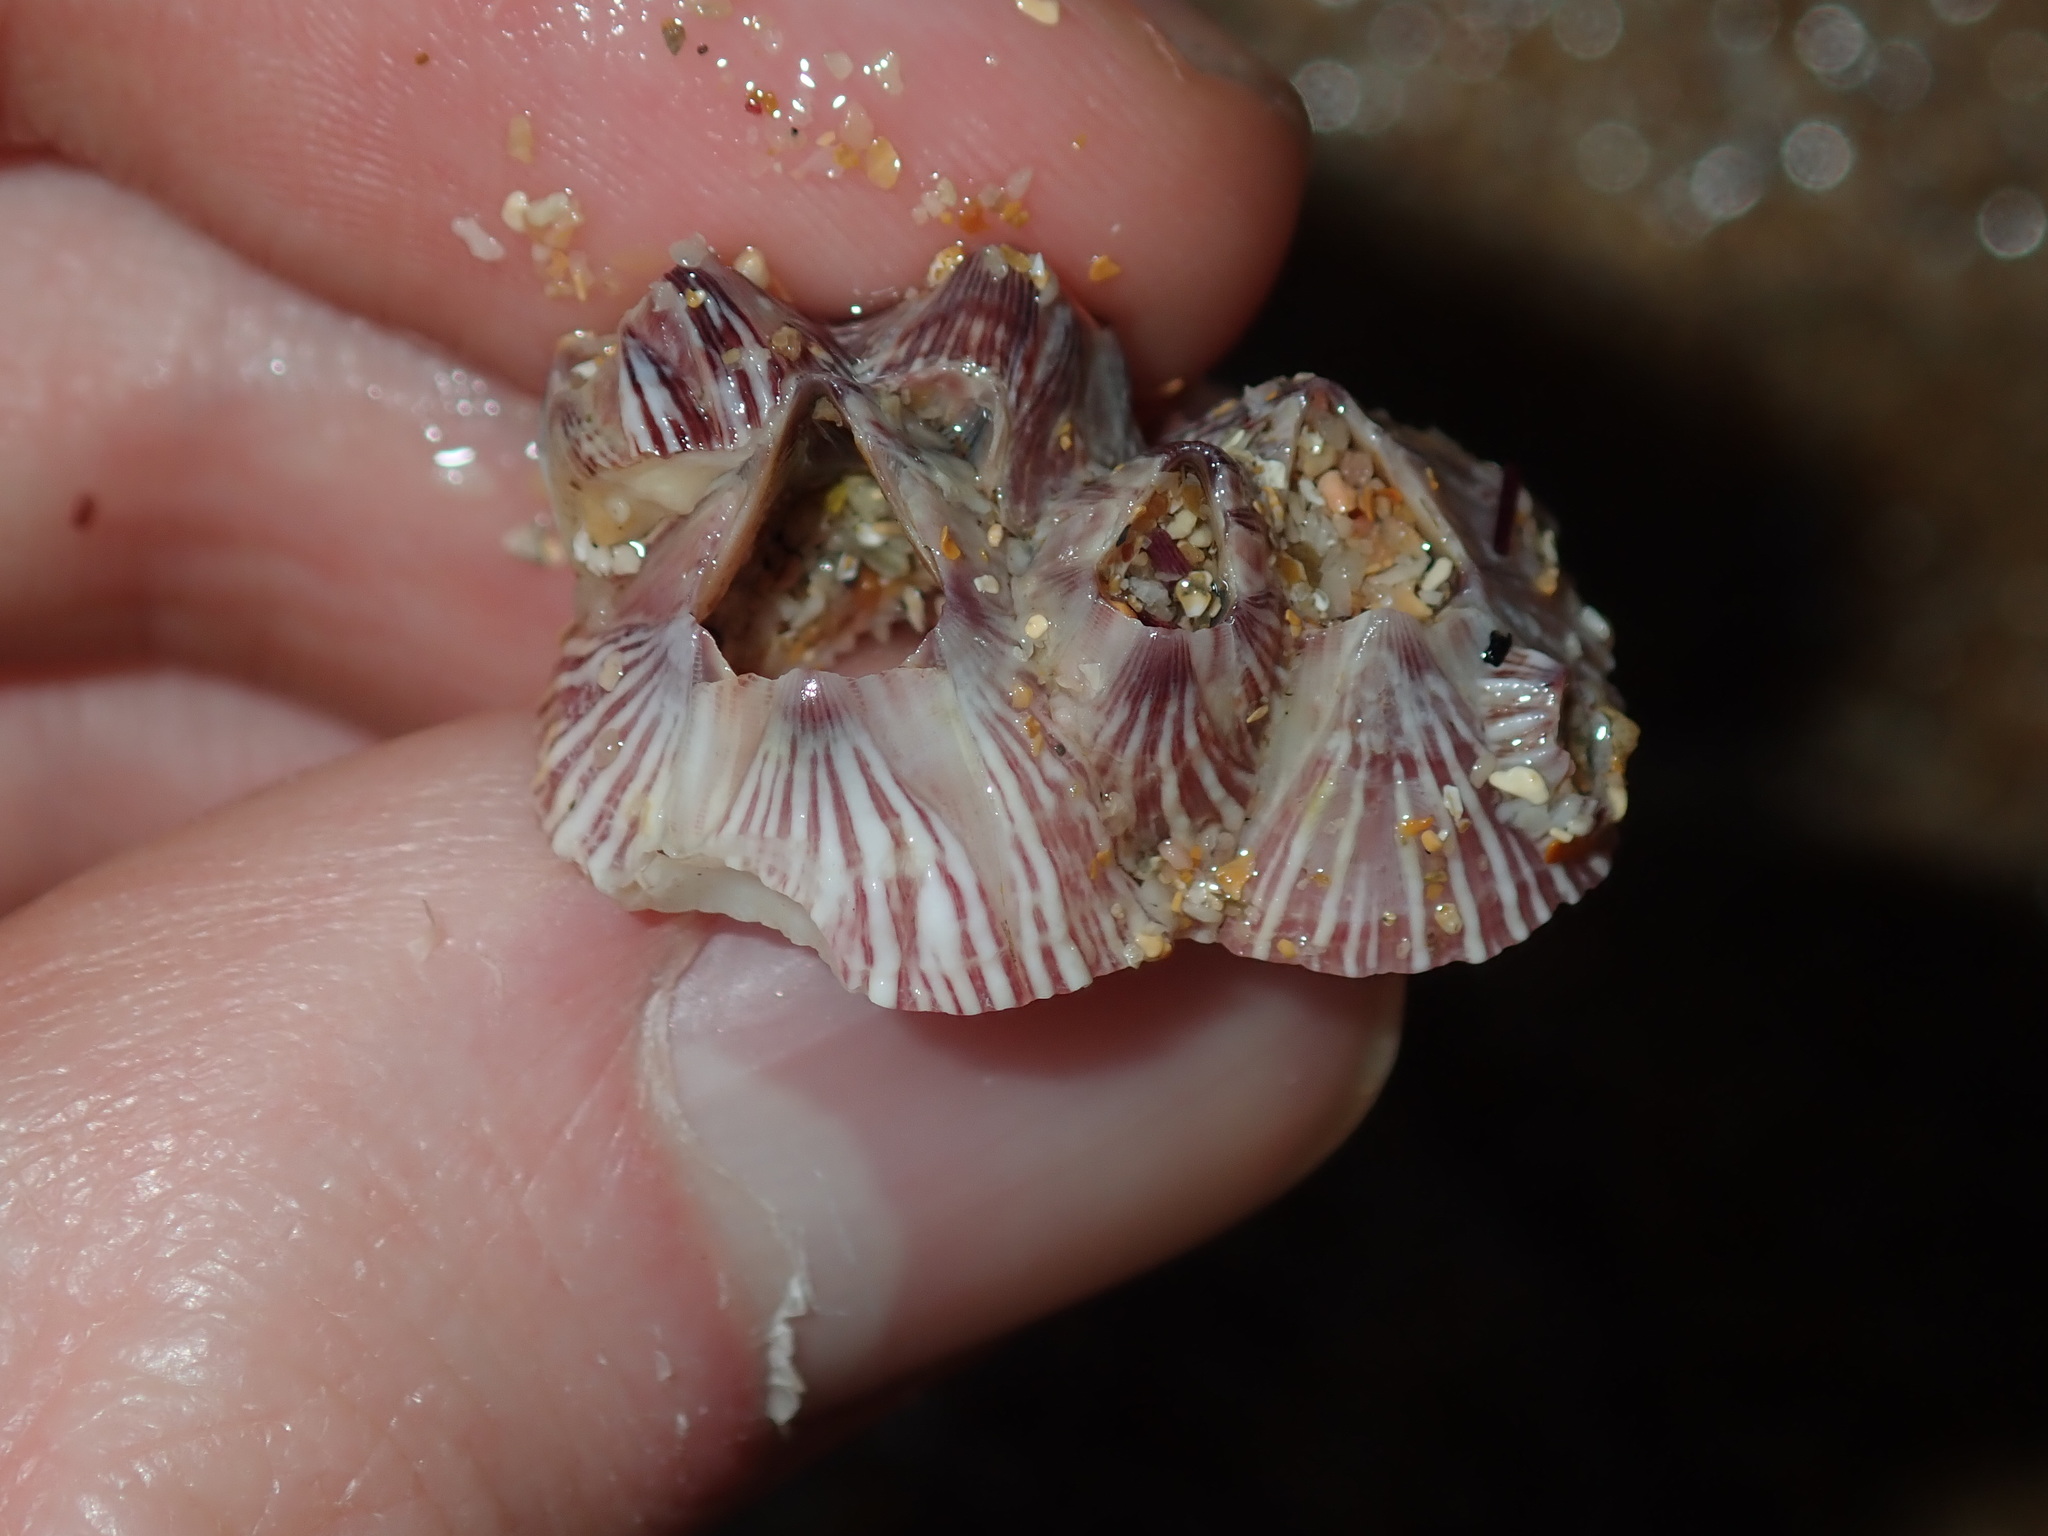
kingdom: Animalia
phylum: Arthropoda
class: Maxillopoda
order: Sessilia
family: Balanidae
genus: Balanus
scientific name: Balanus trigonus
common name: Triangle barnacle
